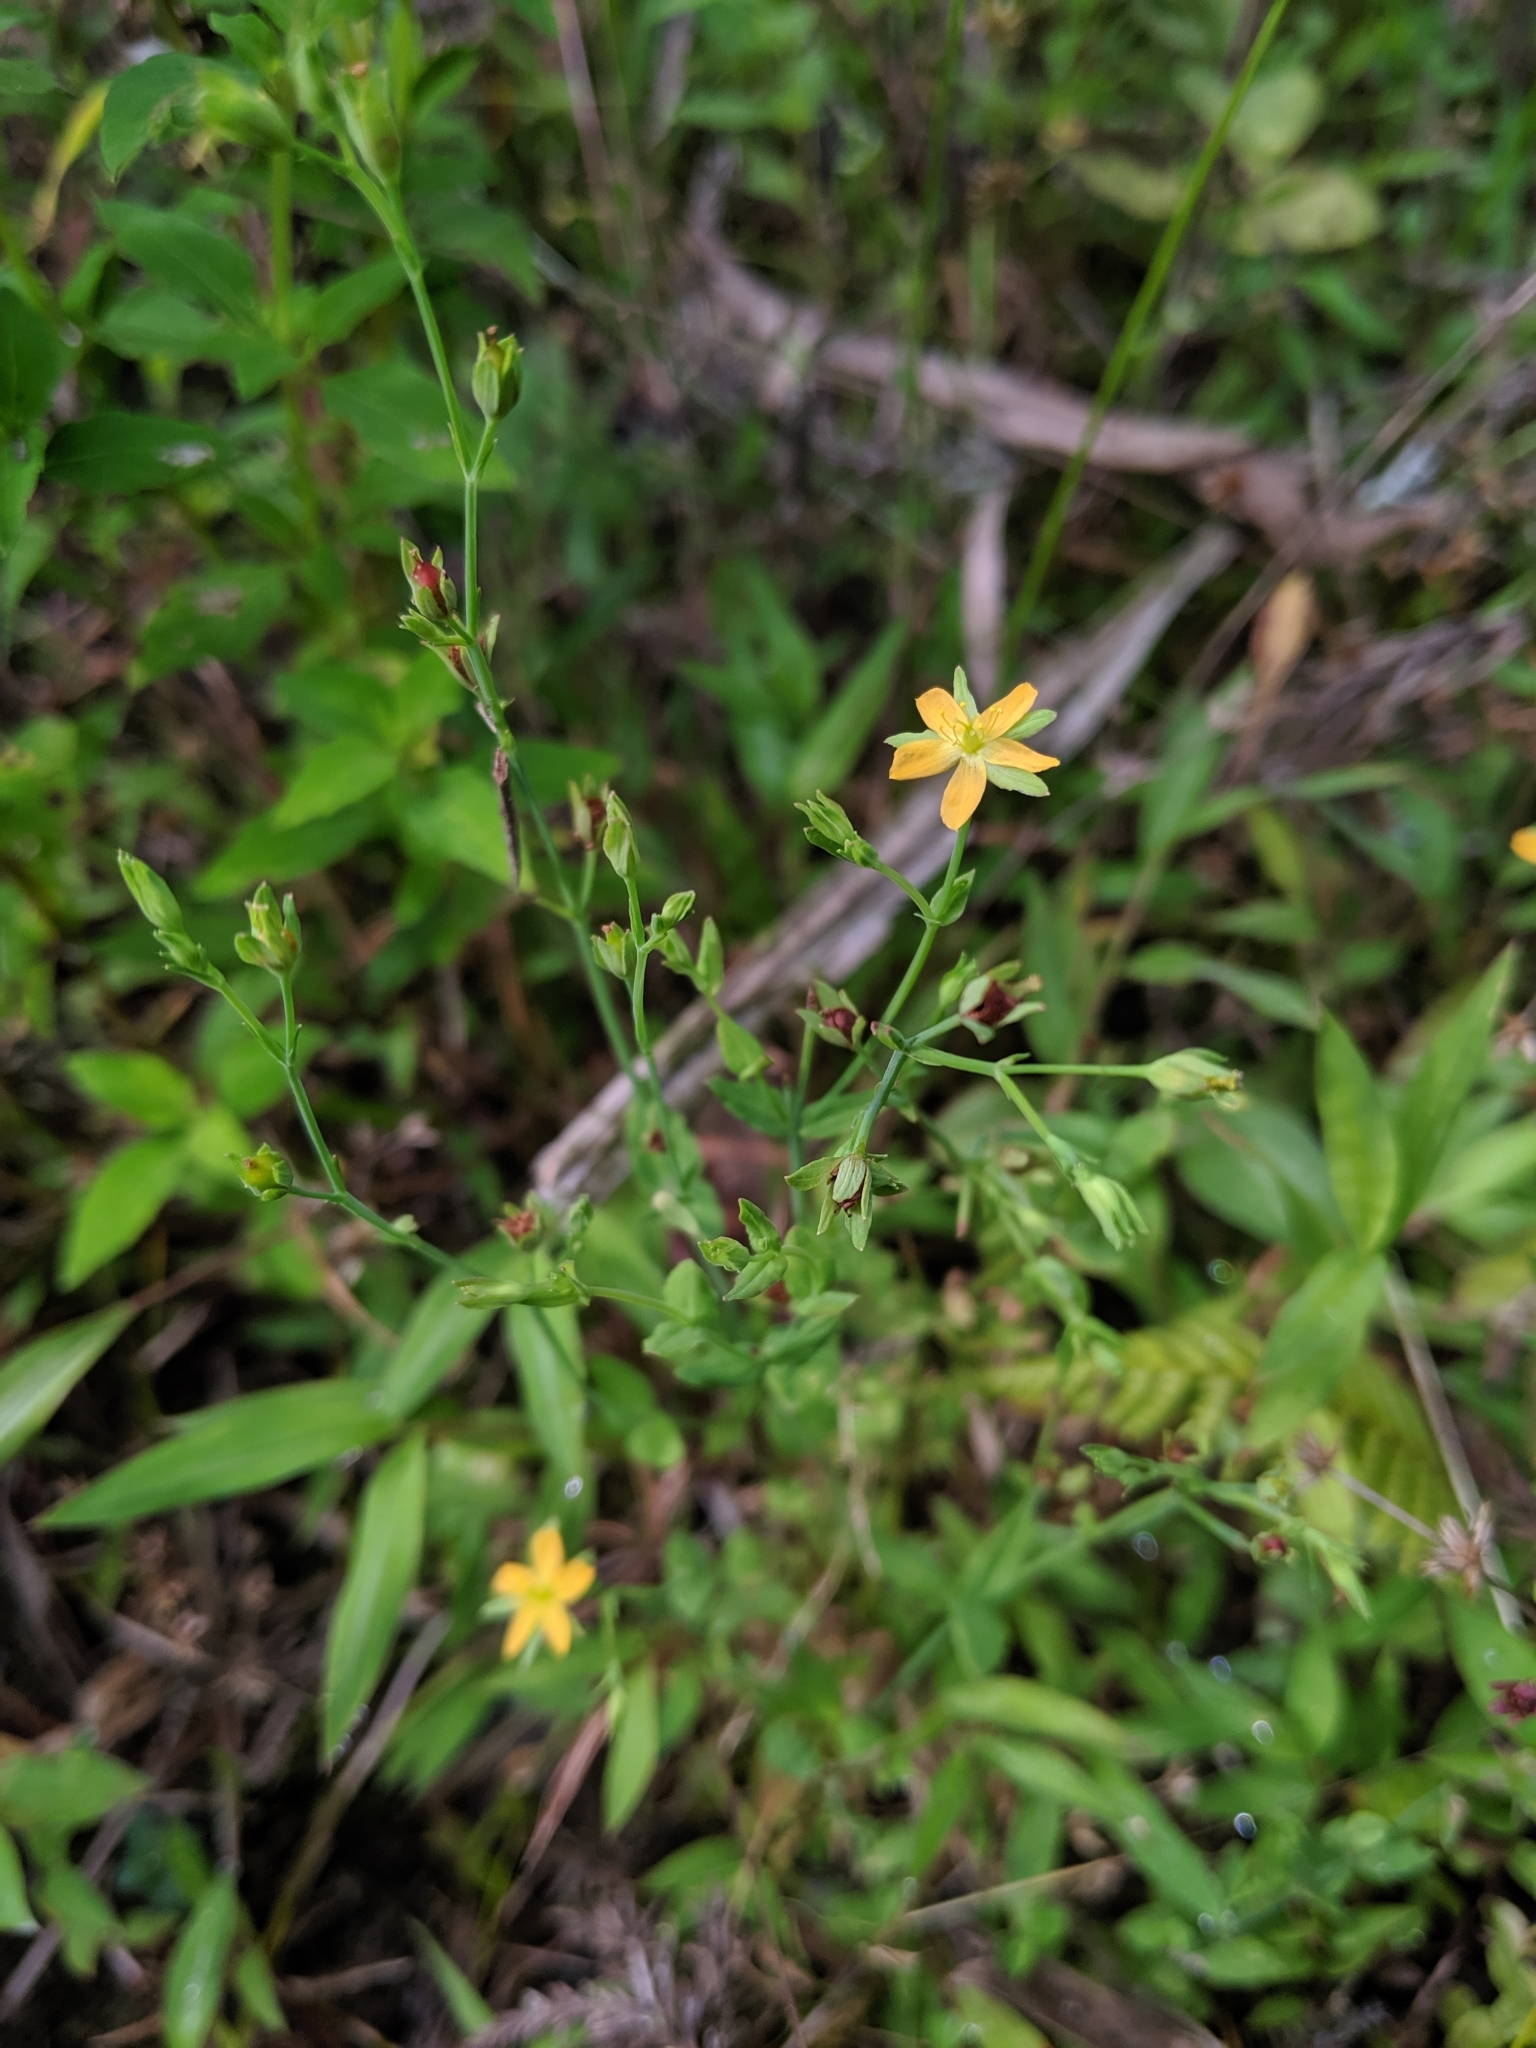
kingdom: Plantae
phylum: Tracheophyta
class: Magnoliopsida
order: Malpighiales
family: Hypericaceae
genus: Hypericum
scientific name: Hypericum japonicum
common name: Matted st. john's-wort
